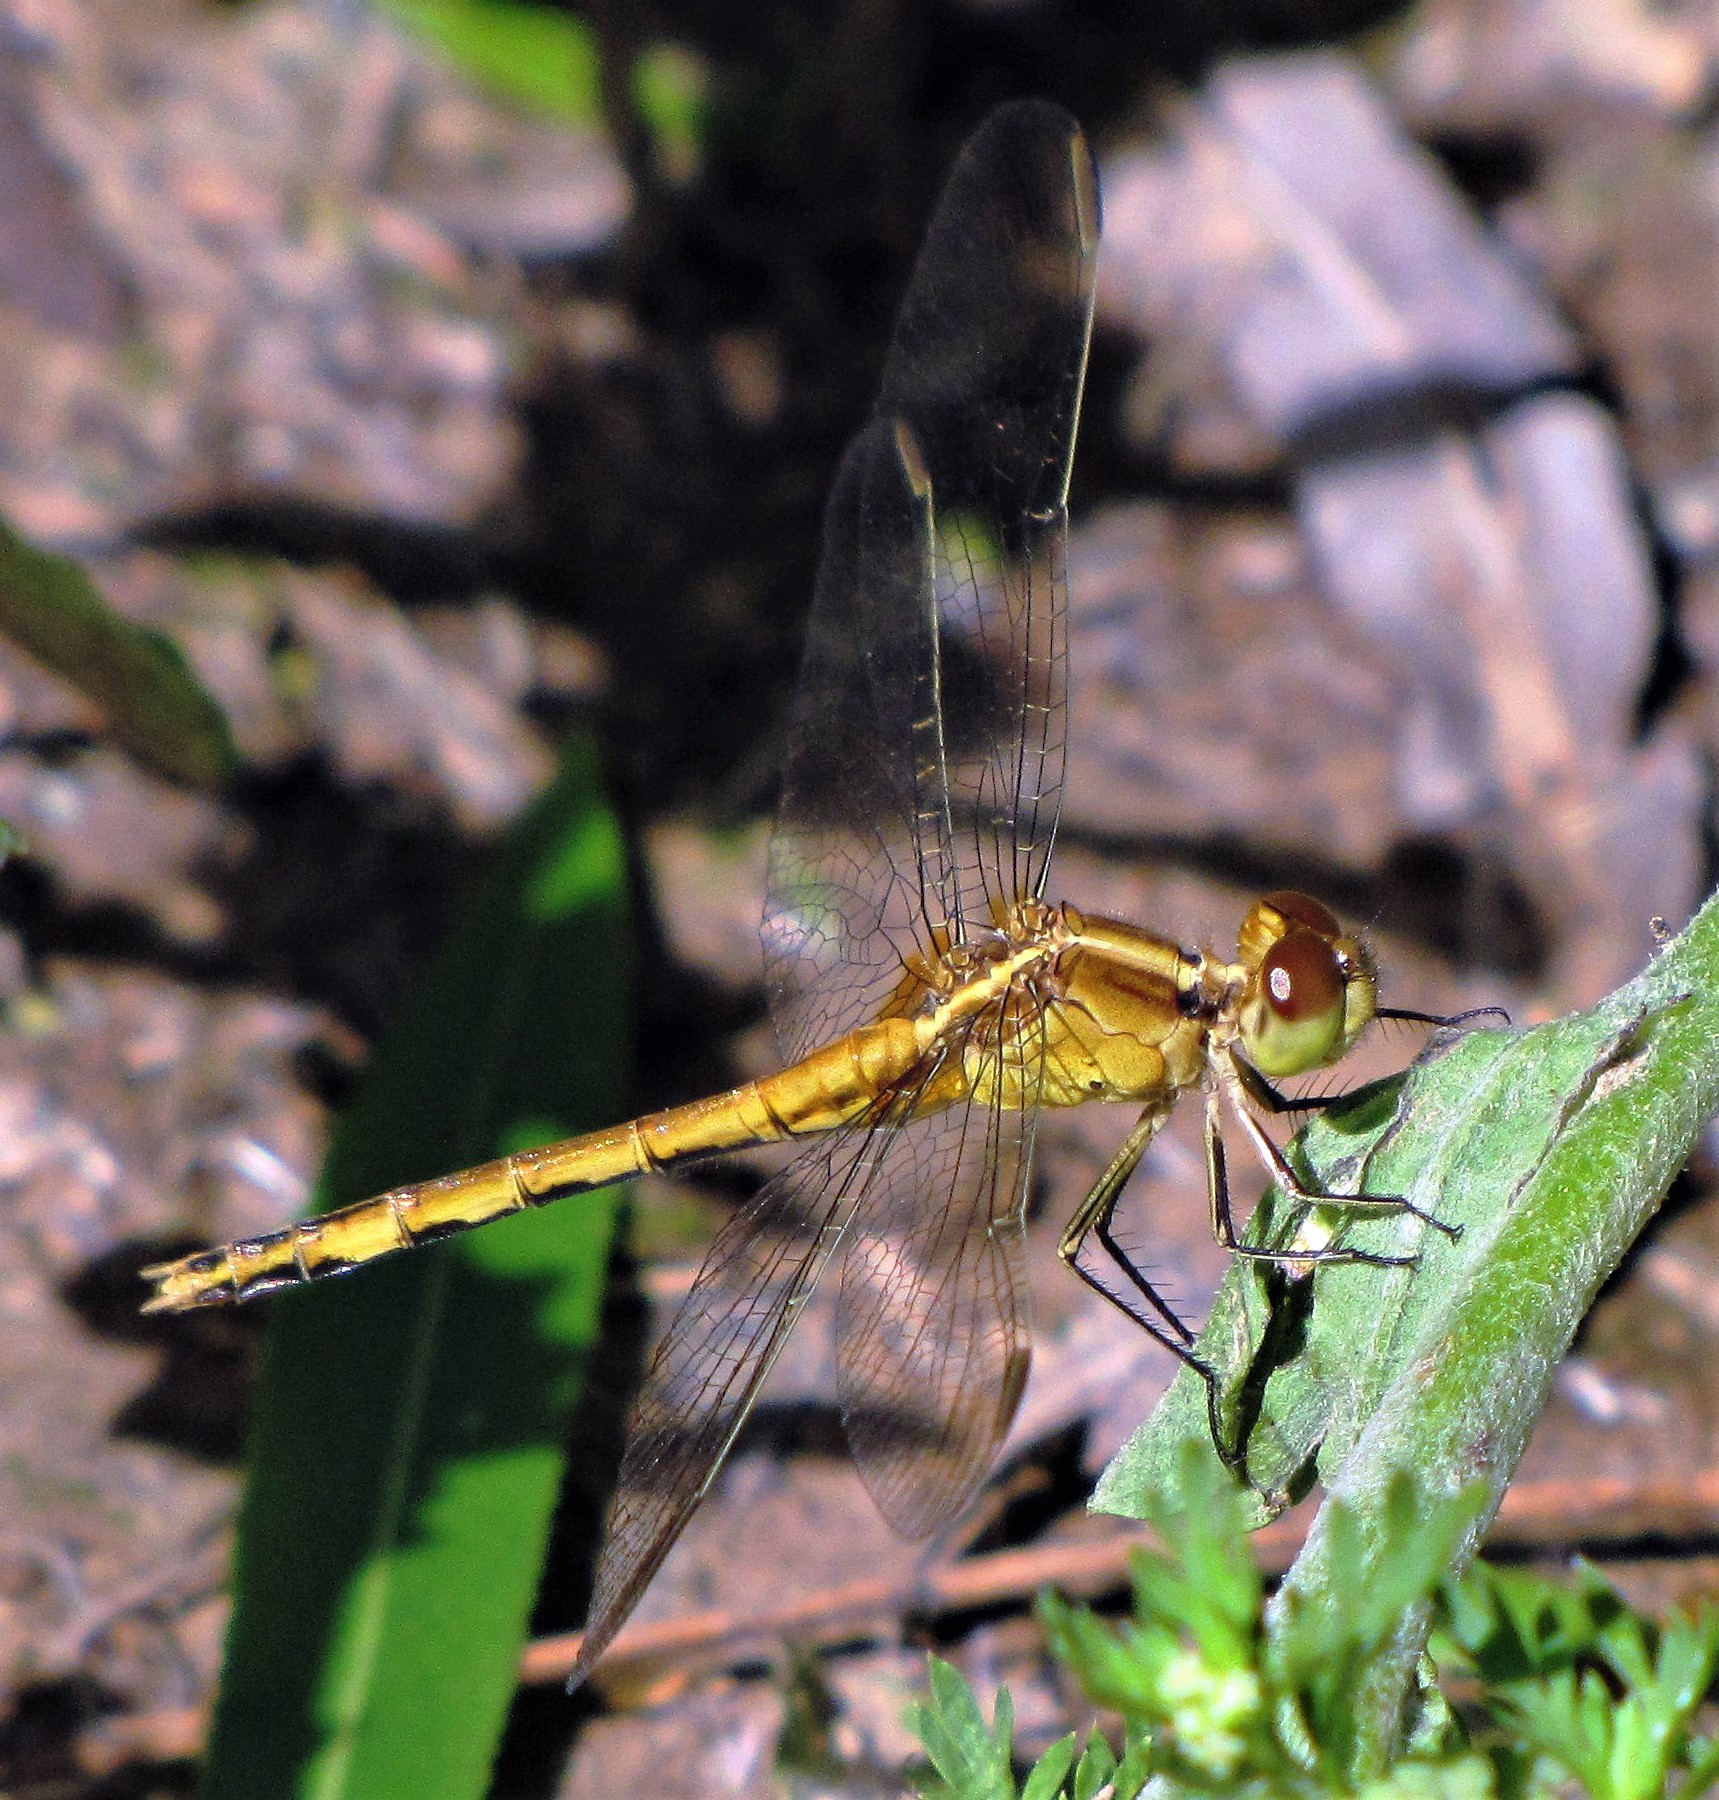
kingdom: Animalia
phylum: Arthropoda
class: Insecta
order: Odonata
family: Libellulidae
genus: Erythrodiplax
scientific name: Erythrodiplax nigricans
